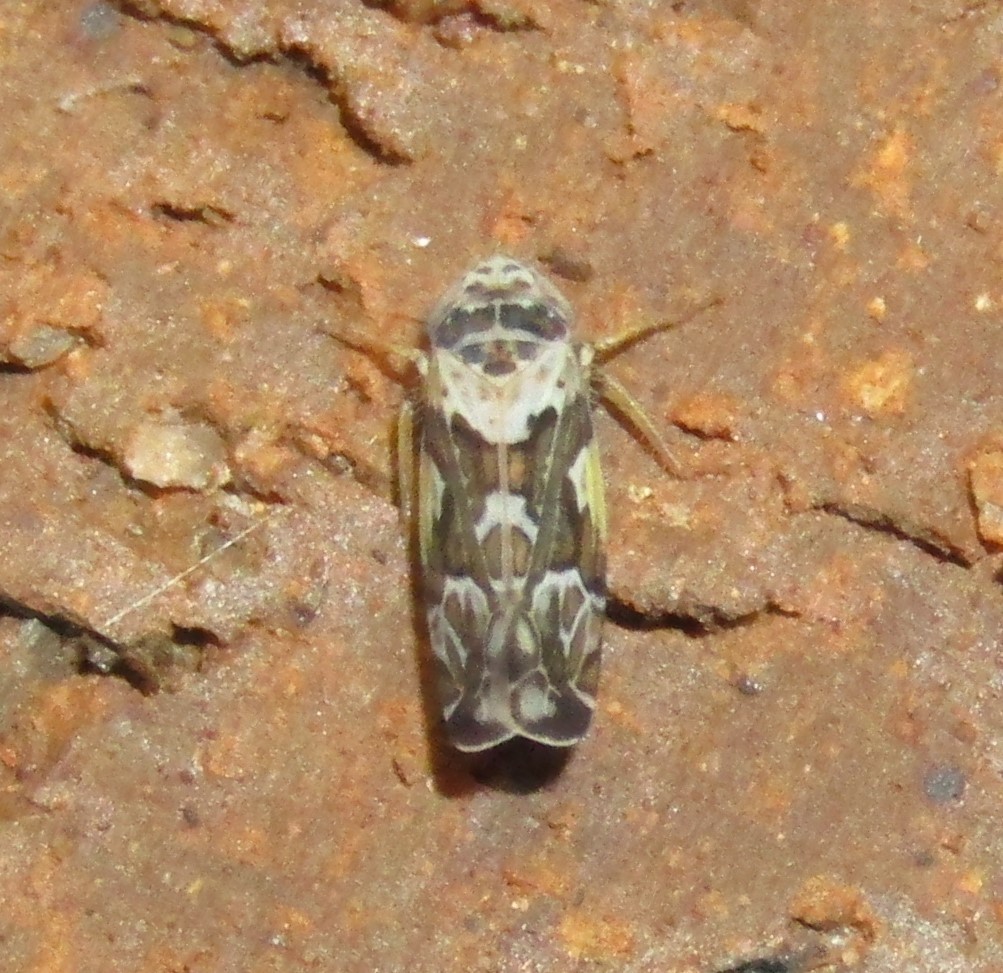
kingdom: Animalia
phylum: Arthropoda
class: Insecta
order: Hemiptera
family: Cicadellidae
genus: Sanctanus
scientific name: Sanctanus cruciatus
